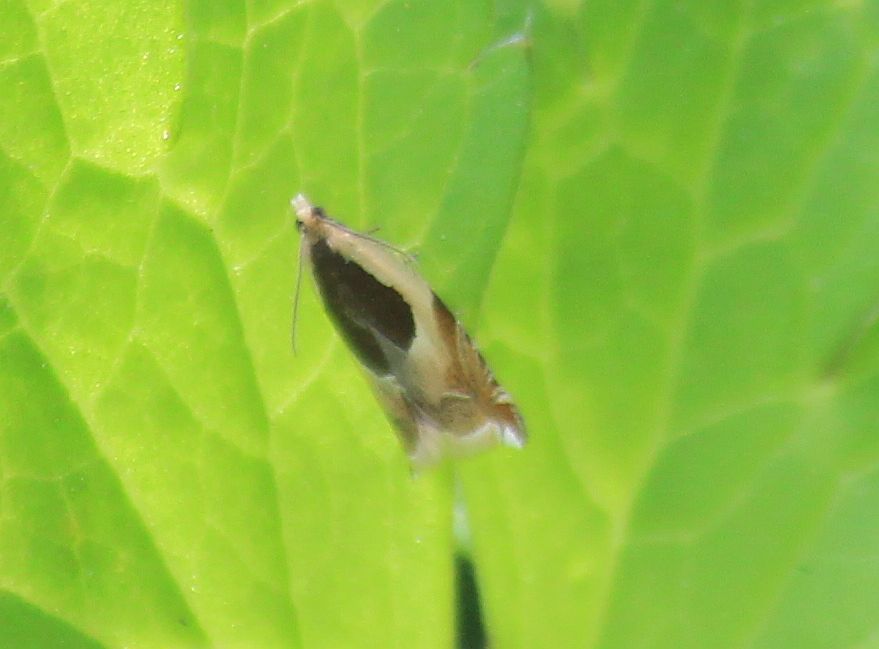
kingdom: Animalia
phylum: Arthropoda
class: Insecta
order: Lepidoptera
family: Tortricidae
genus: Ancylis
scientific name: Ancylis badiana
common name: Common roller
